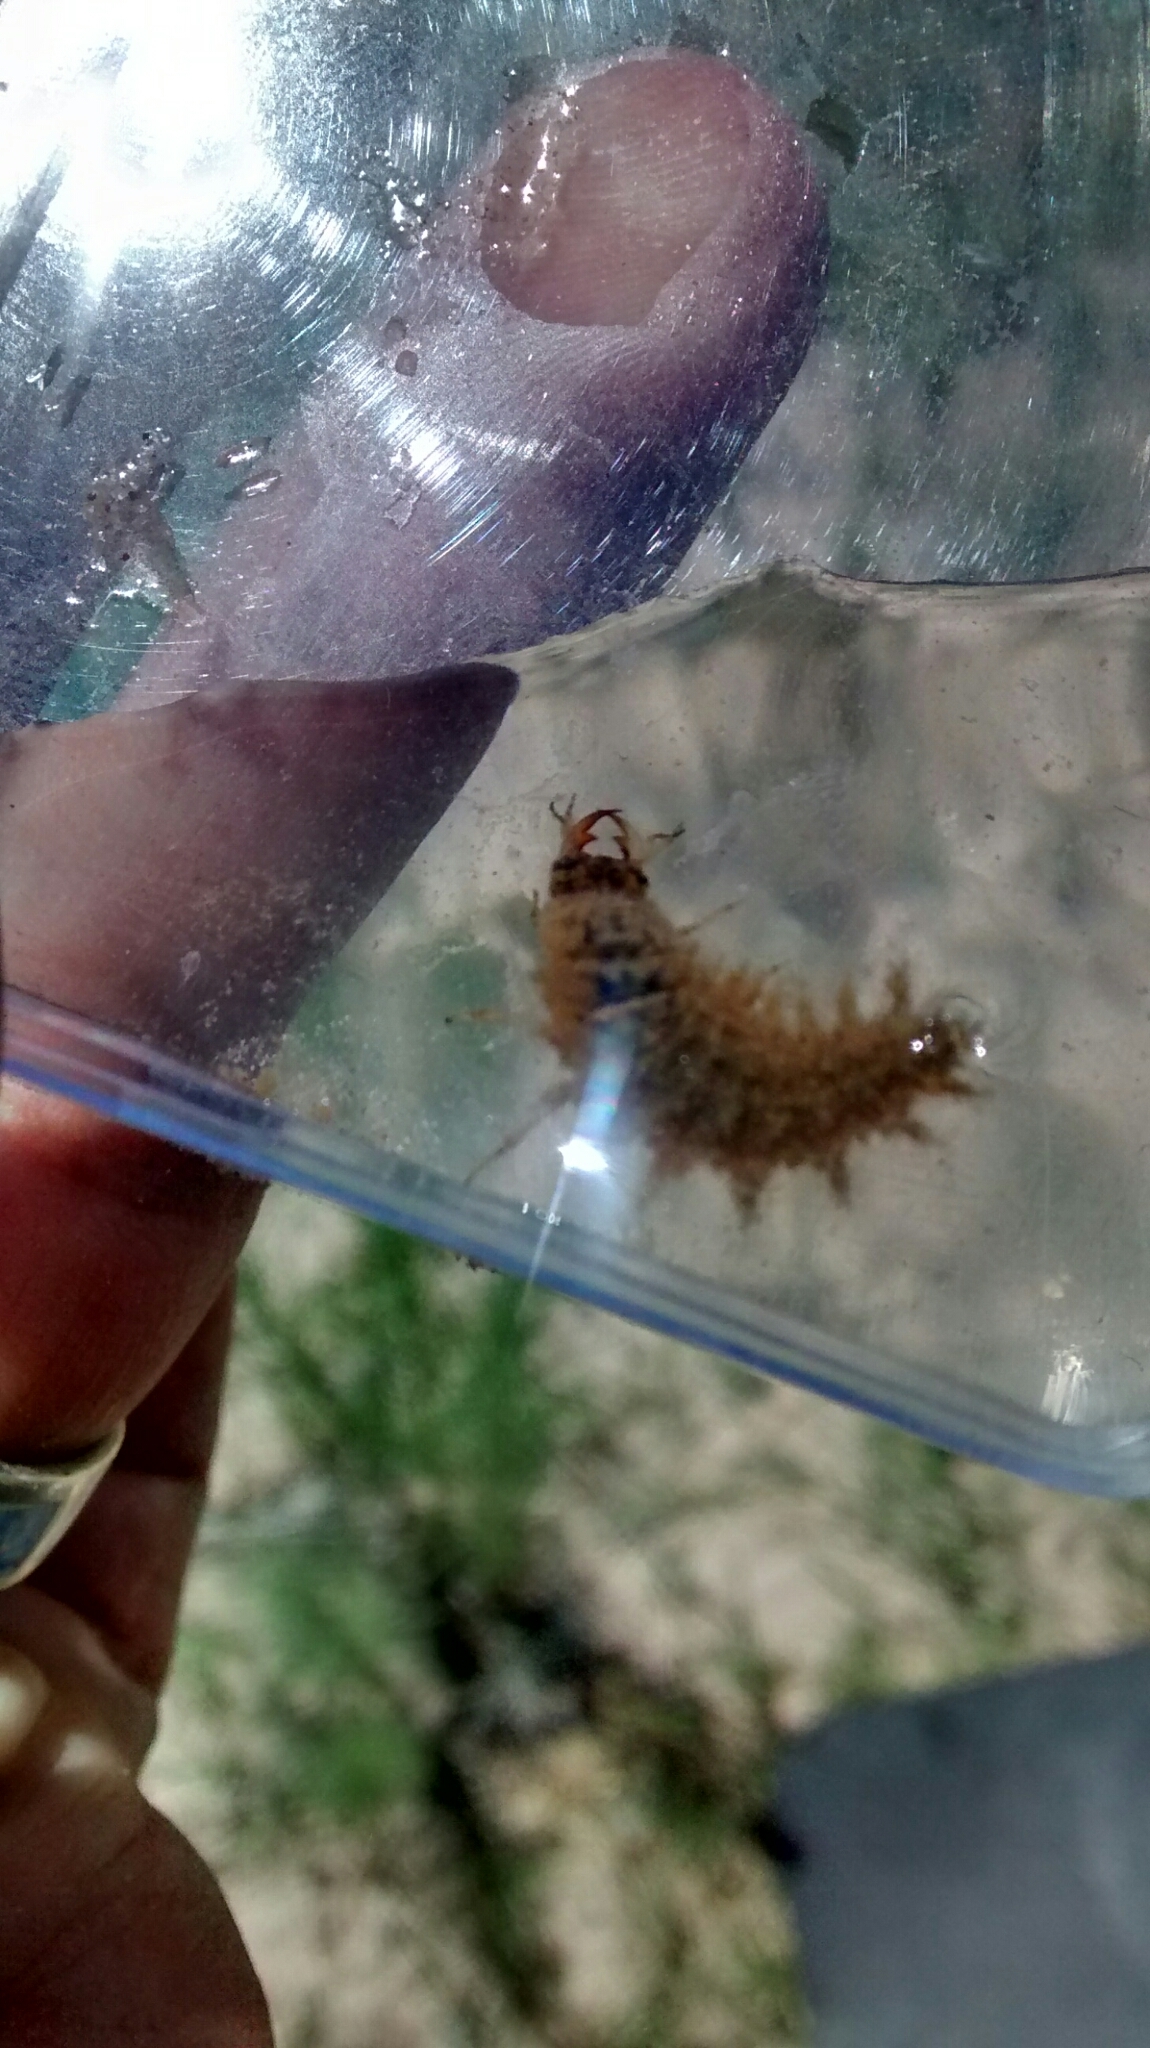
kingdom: Animalia
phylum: Arthropoda
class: Insecta
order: Coleoptera
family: Hydrophilidae
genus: Hydrochara
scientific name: Hydrochara lineata
